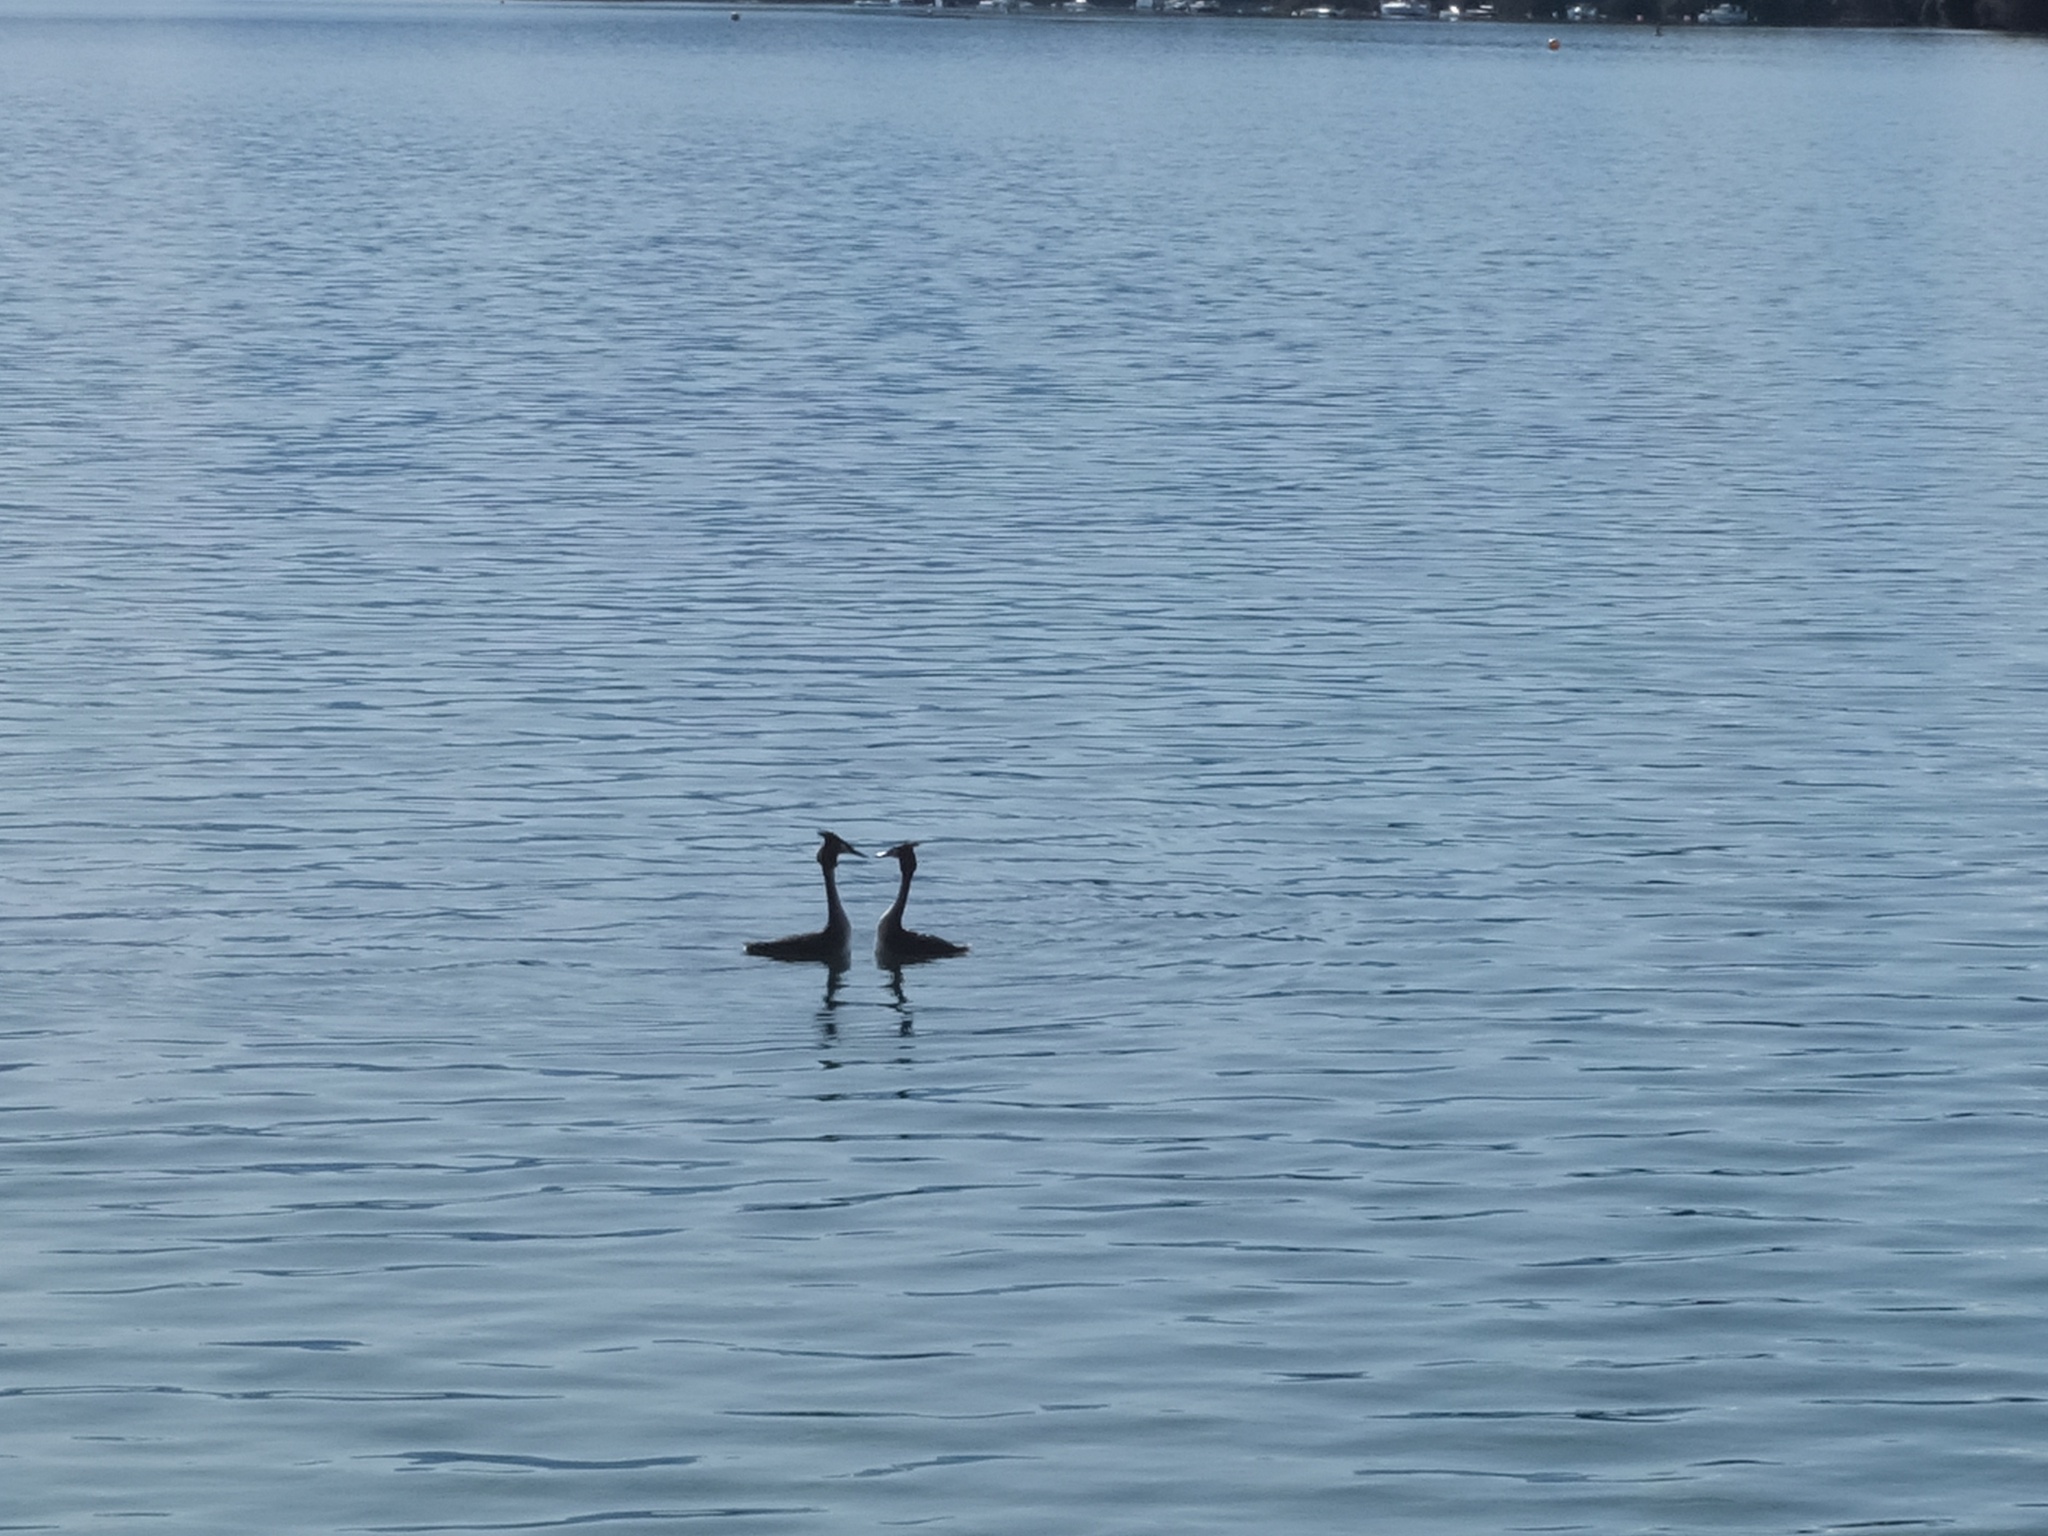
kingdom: Animalia
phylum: Chordata
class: Aves
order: Podicipediformes
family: Podicipedidae
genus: Podiceps
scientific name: Podiceps cristatus
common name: Great crested grebe
